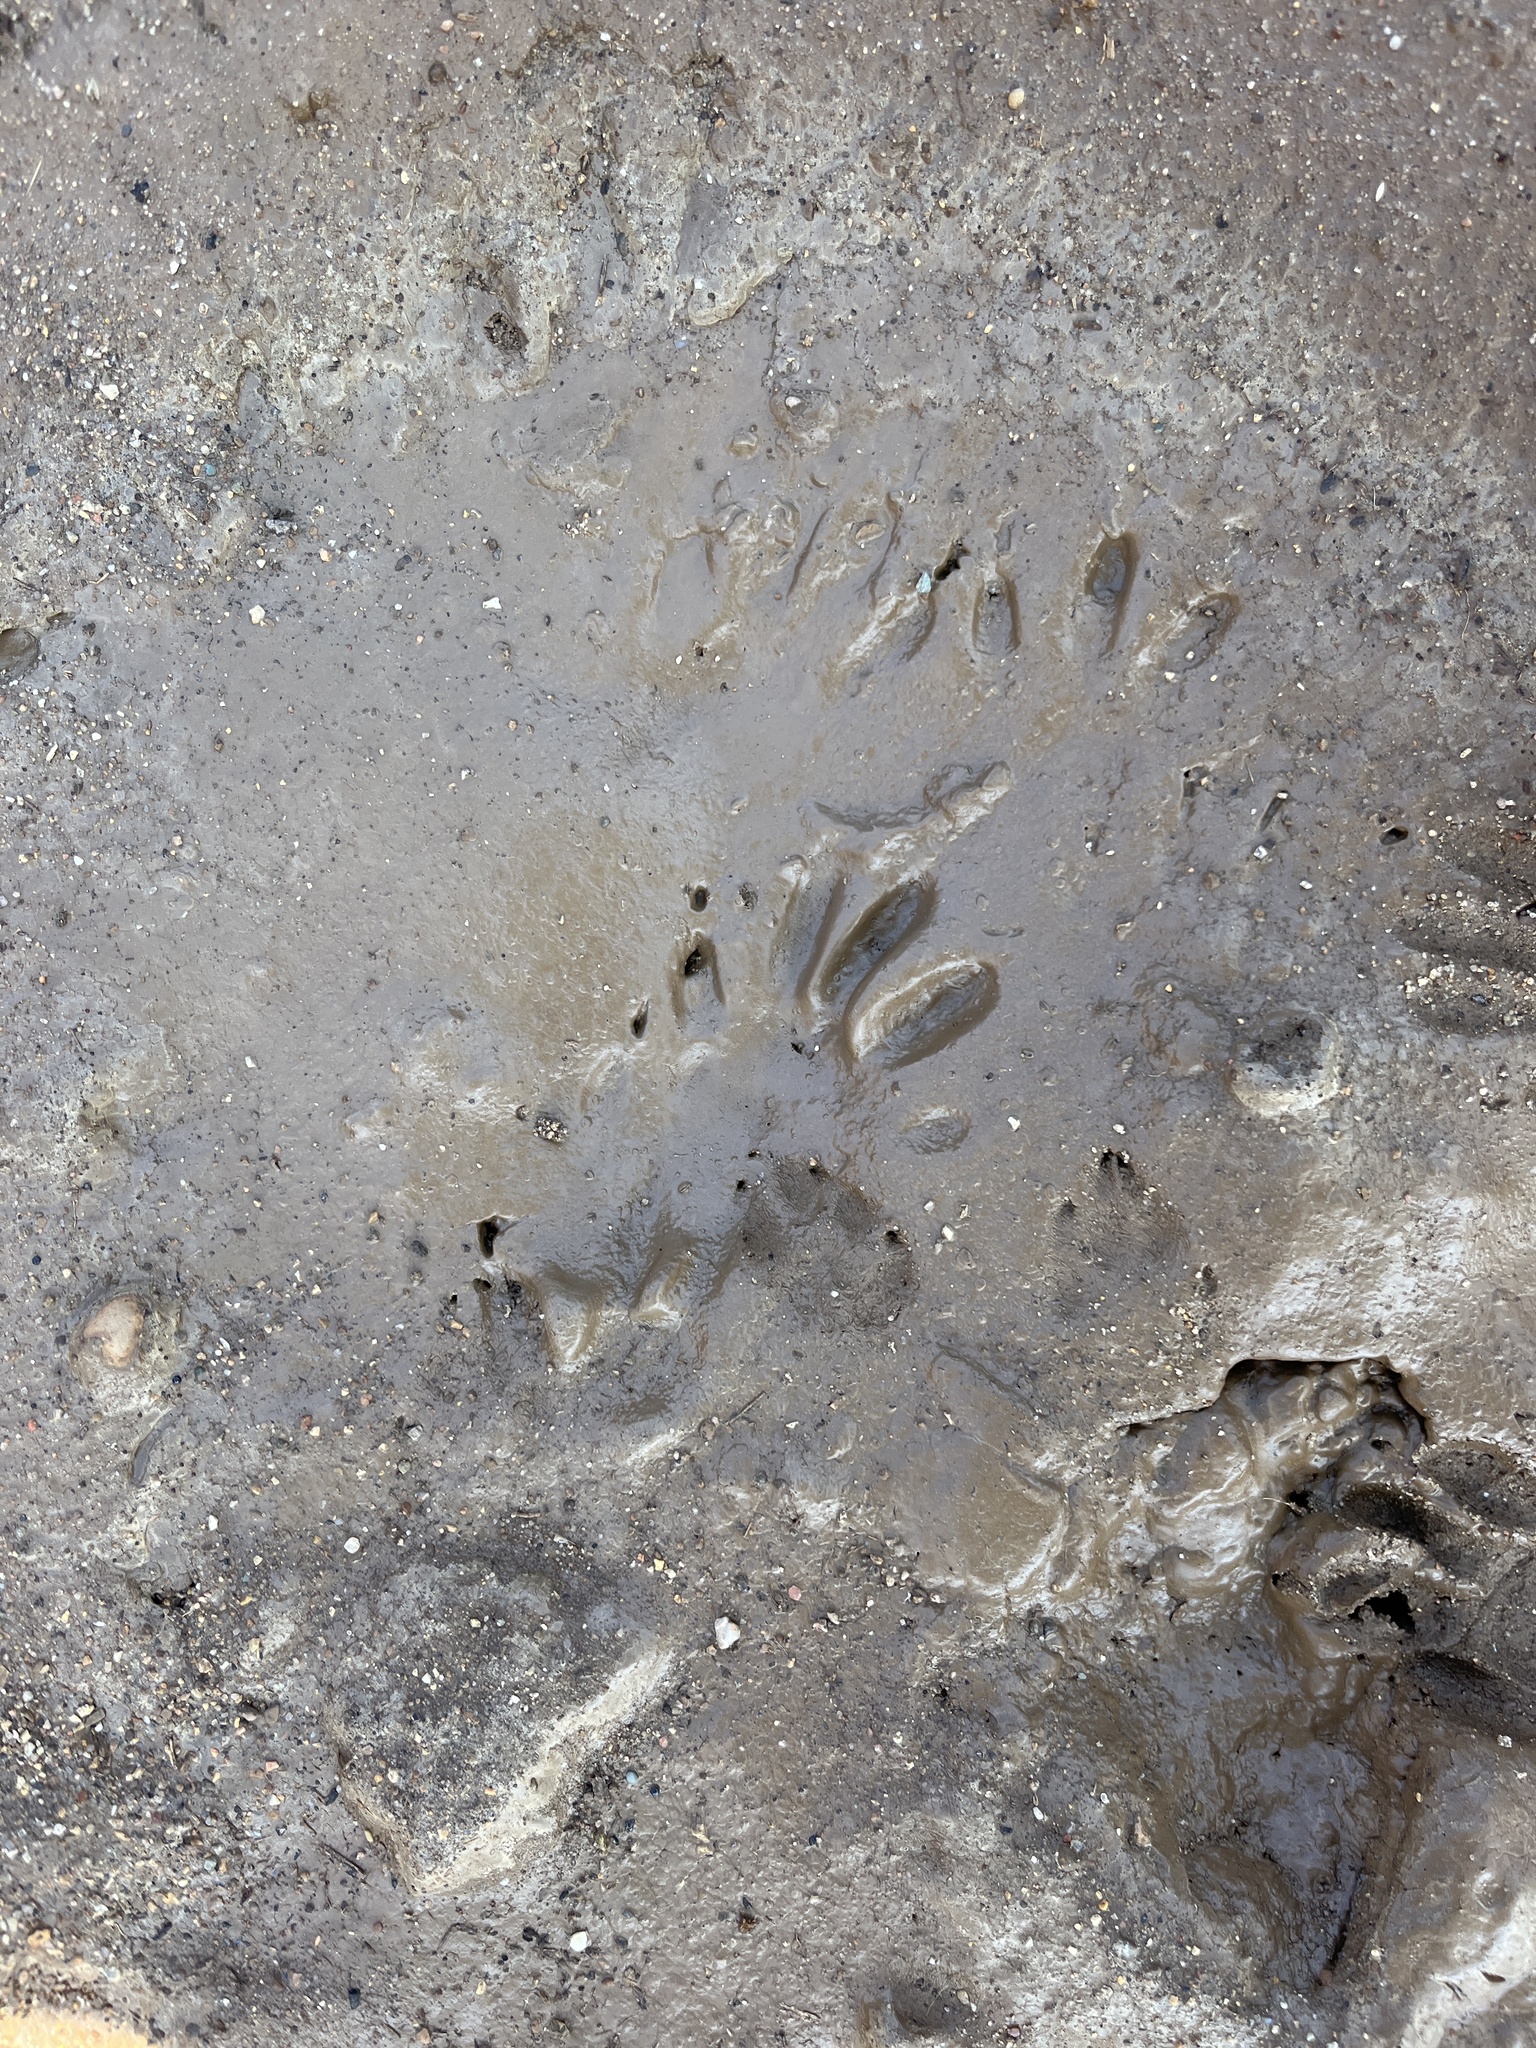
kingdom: Animalia
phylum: Chordata
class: Mammalia
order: Carnivora
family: Procyonidae
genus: Procyon
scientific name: Procyon lotor
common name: Raccoon
